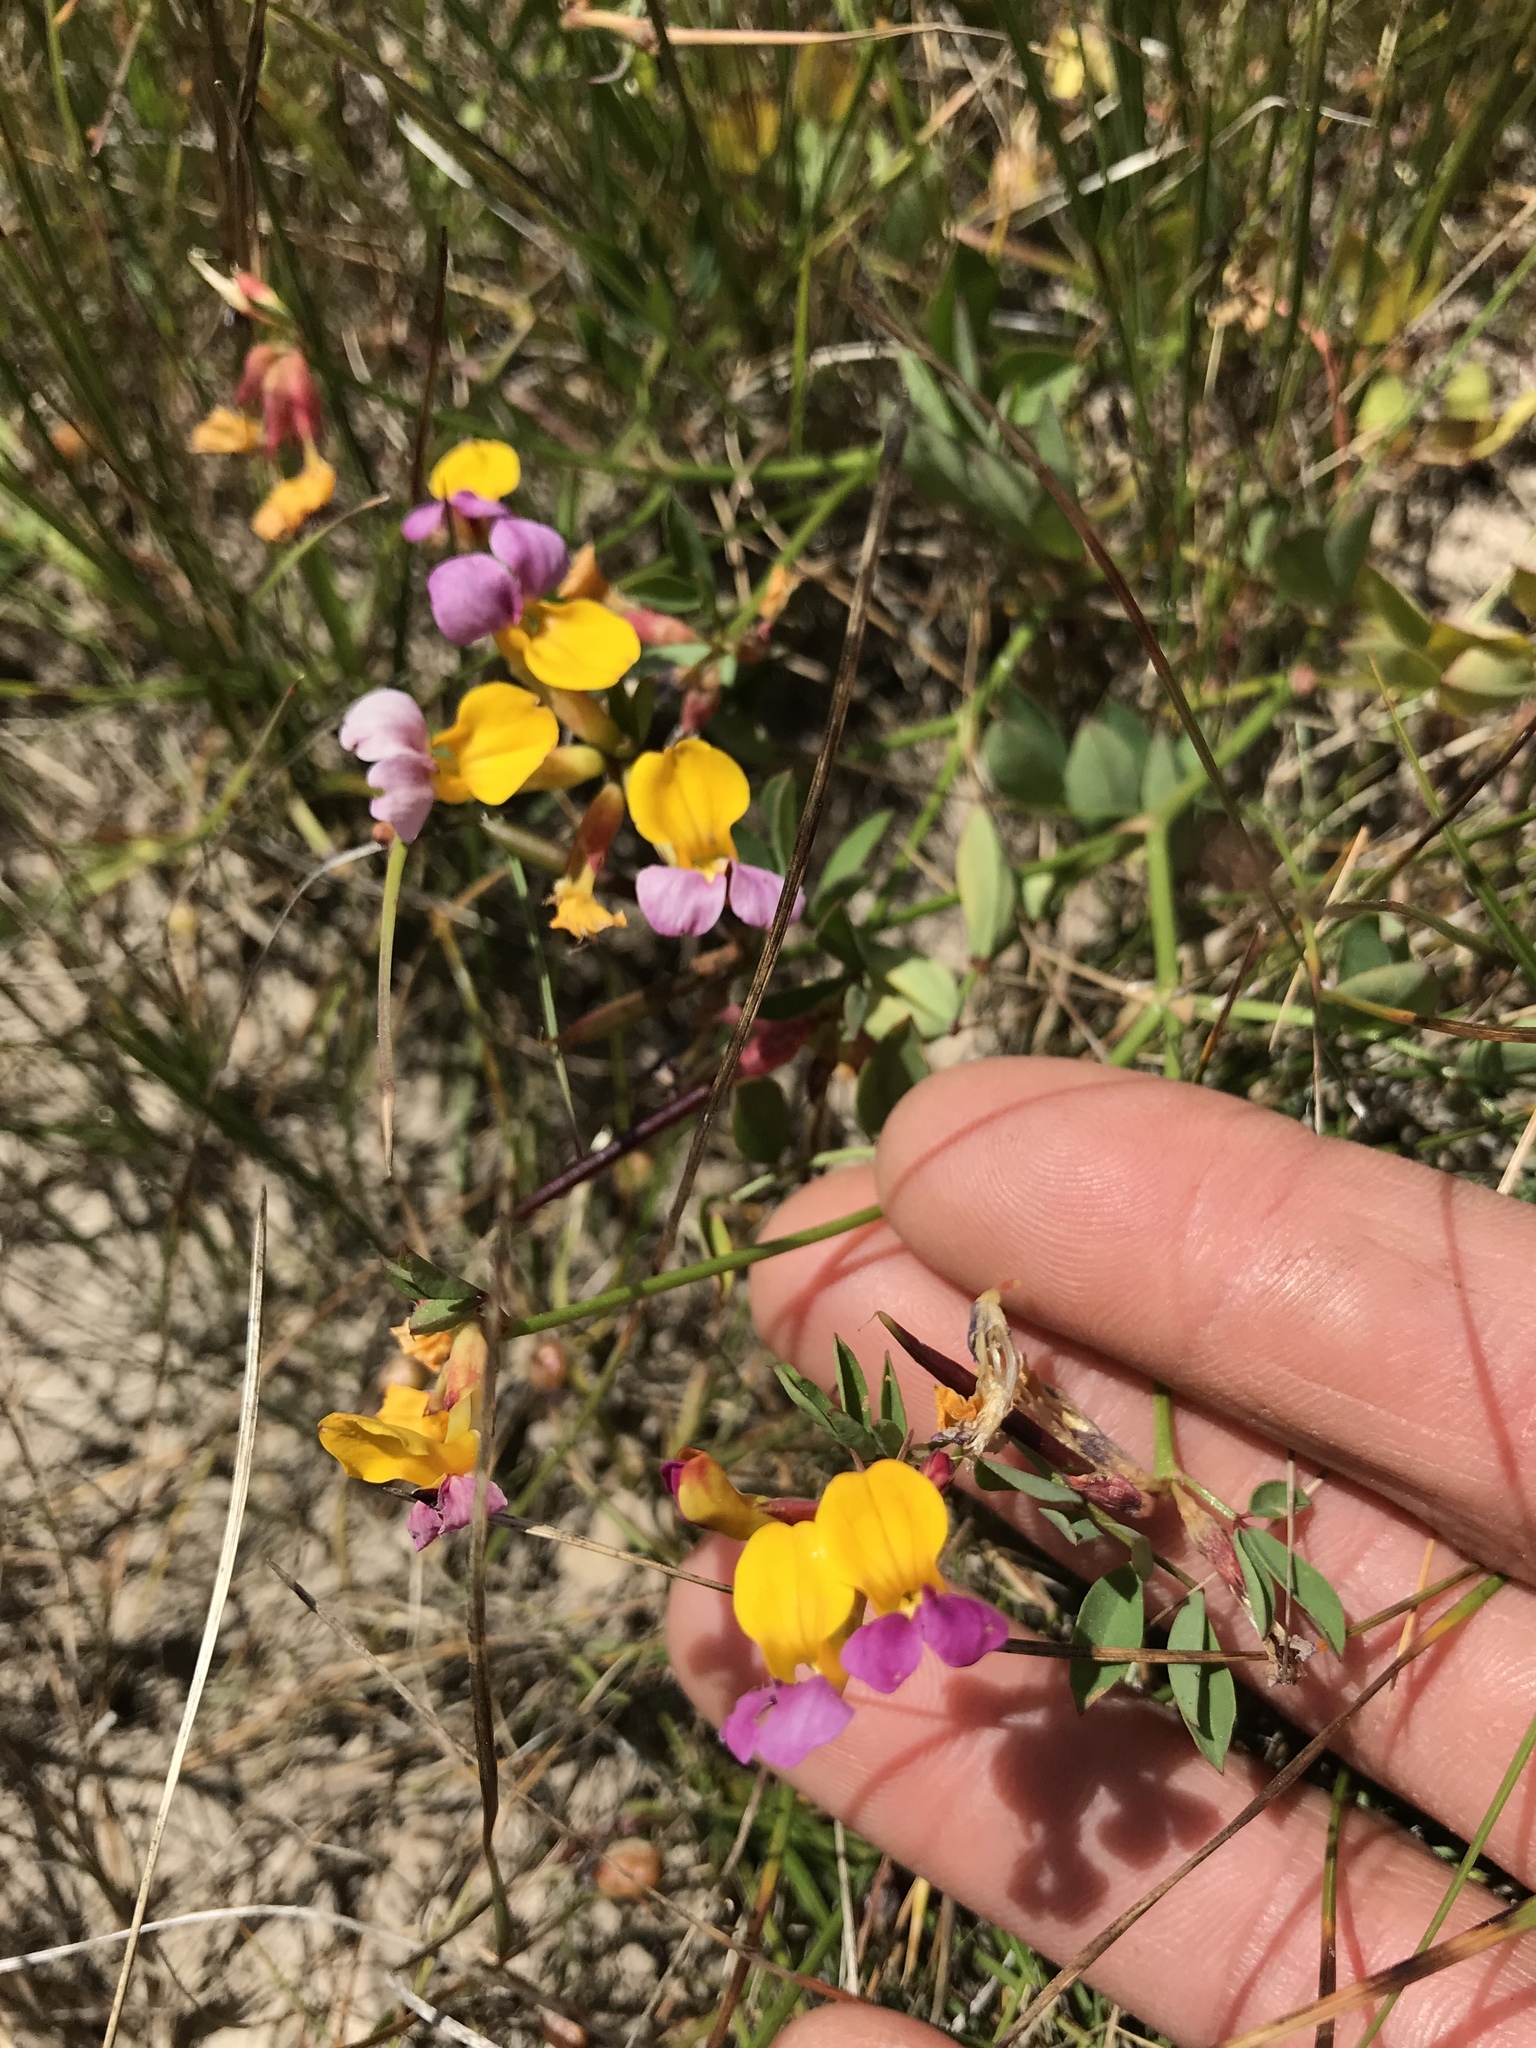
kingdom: Plantae
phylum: Tracheophyta
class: Magnoliopsida
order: Fabales
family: Fabaceae
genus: Hosackia
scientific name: Hosackia gracilis
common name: Seaside bird's-foot lotus
